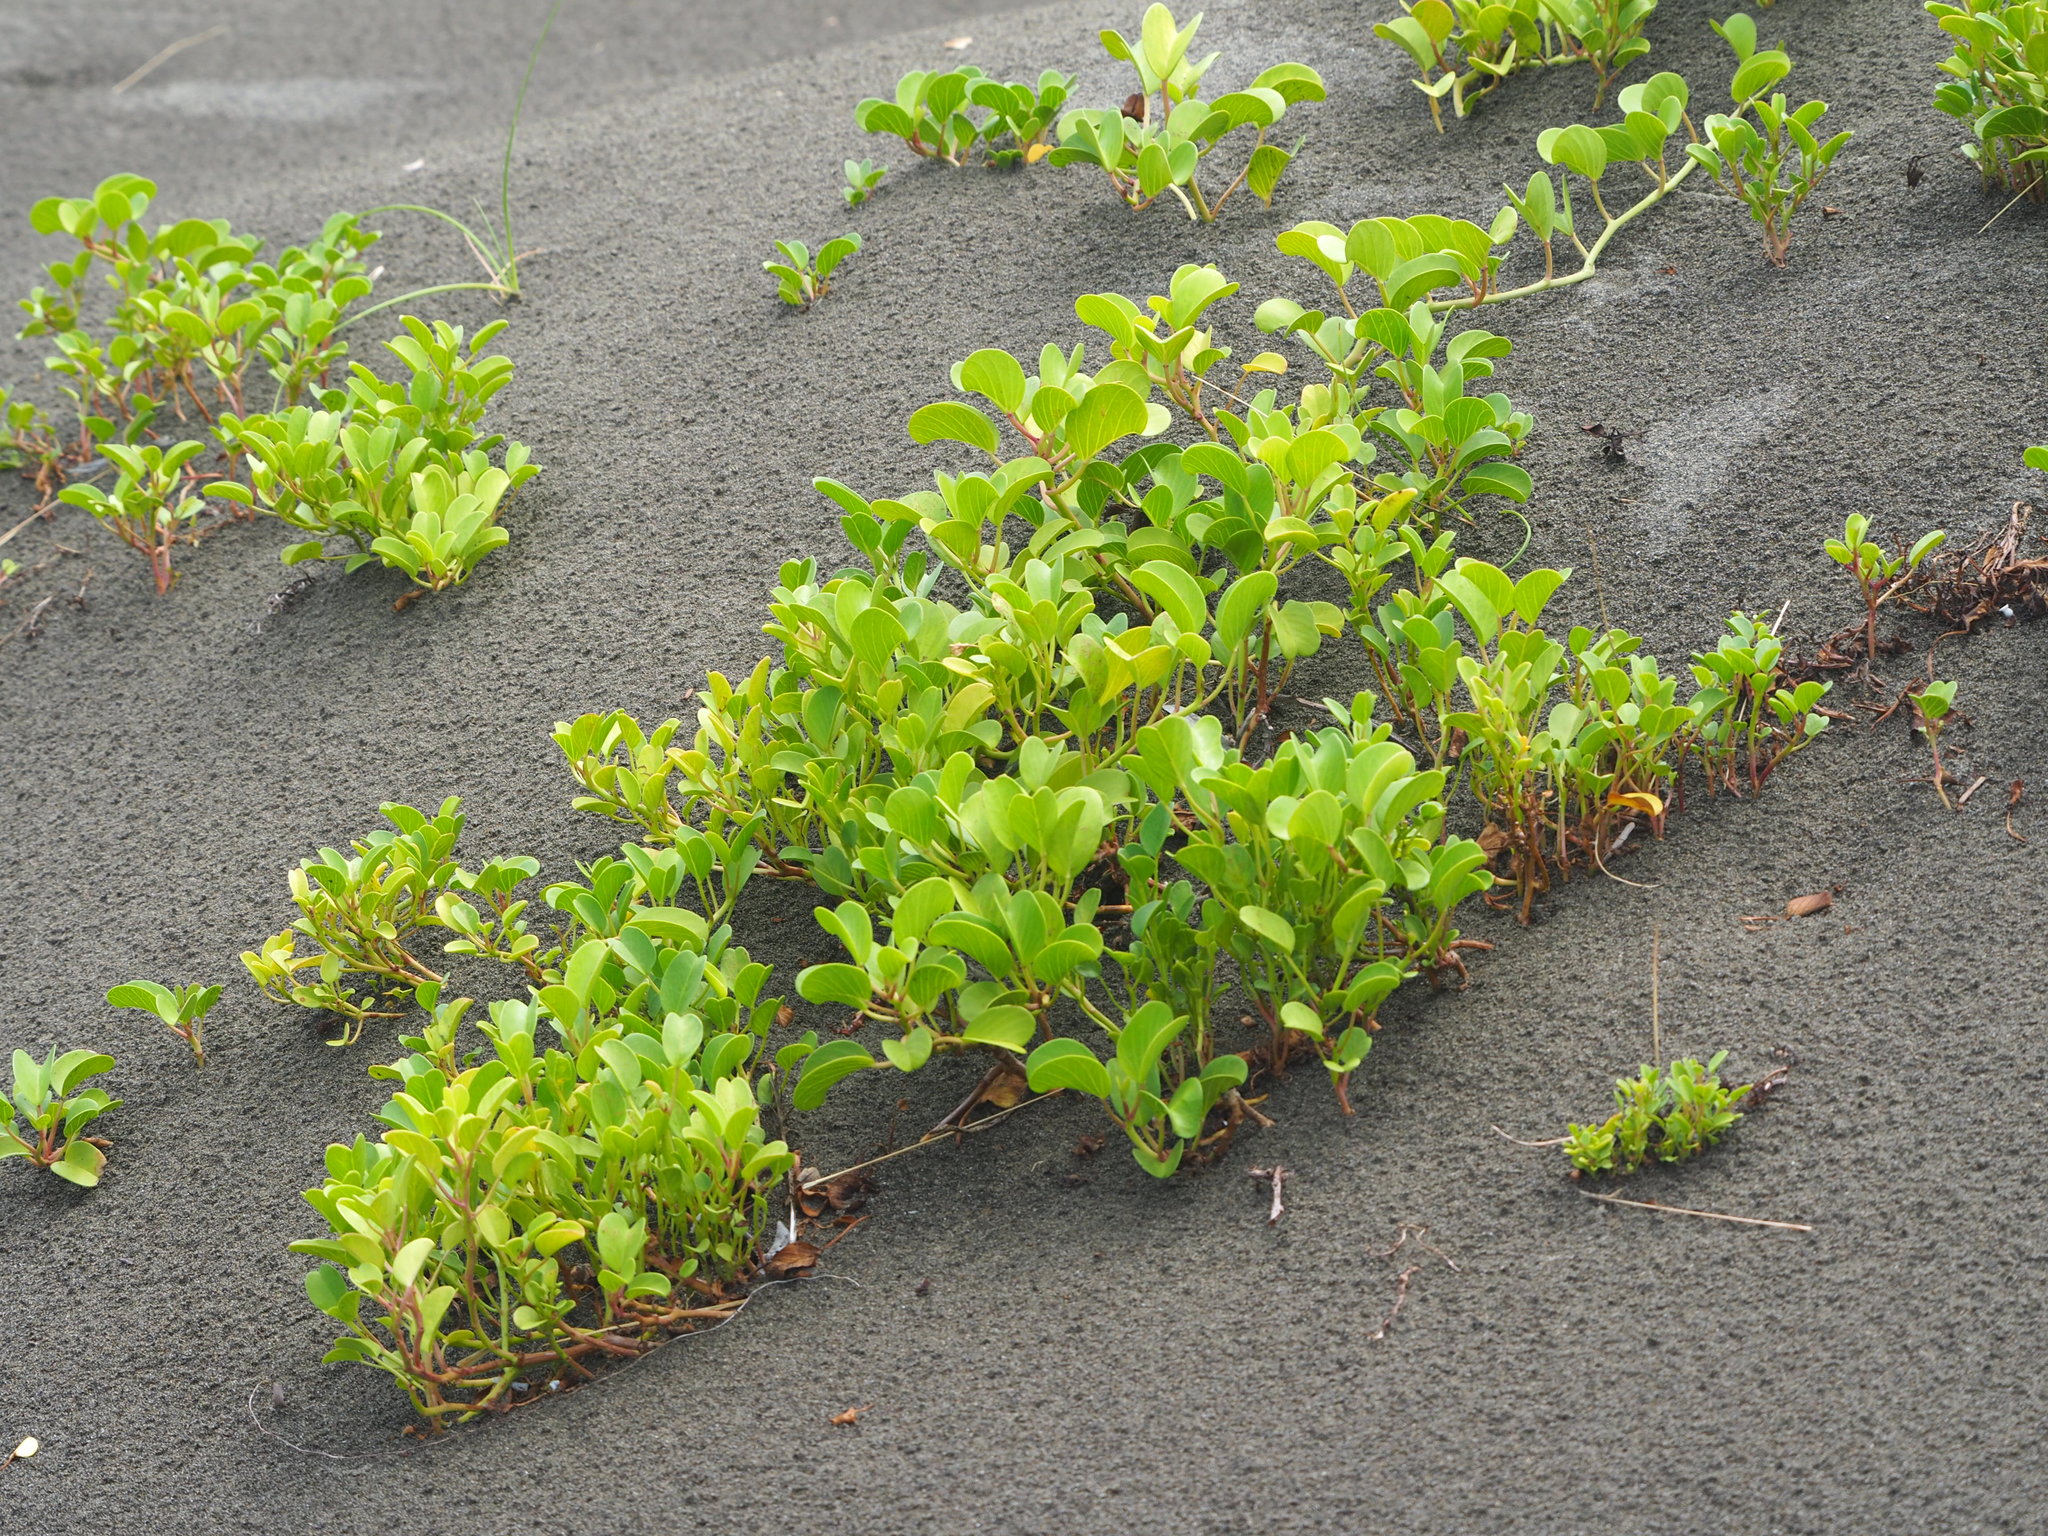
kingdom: Plantae
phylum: Tracheophyta
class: Magnoliopsida
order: Solanales
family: Convolvulaceae
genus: Ipomoea
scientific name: Ipomoea pes-caprae
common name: Beach morning glory
